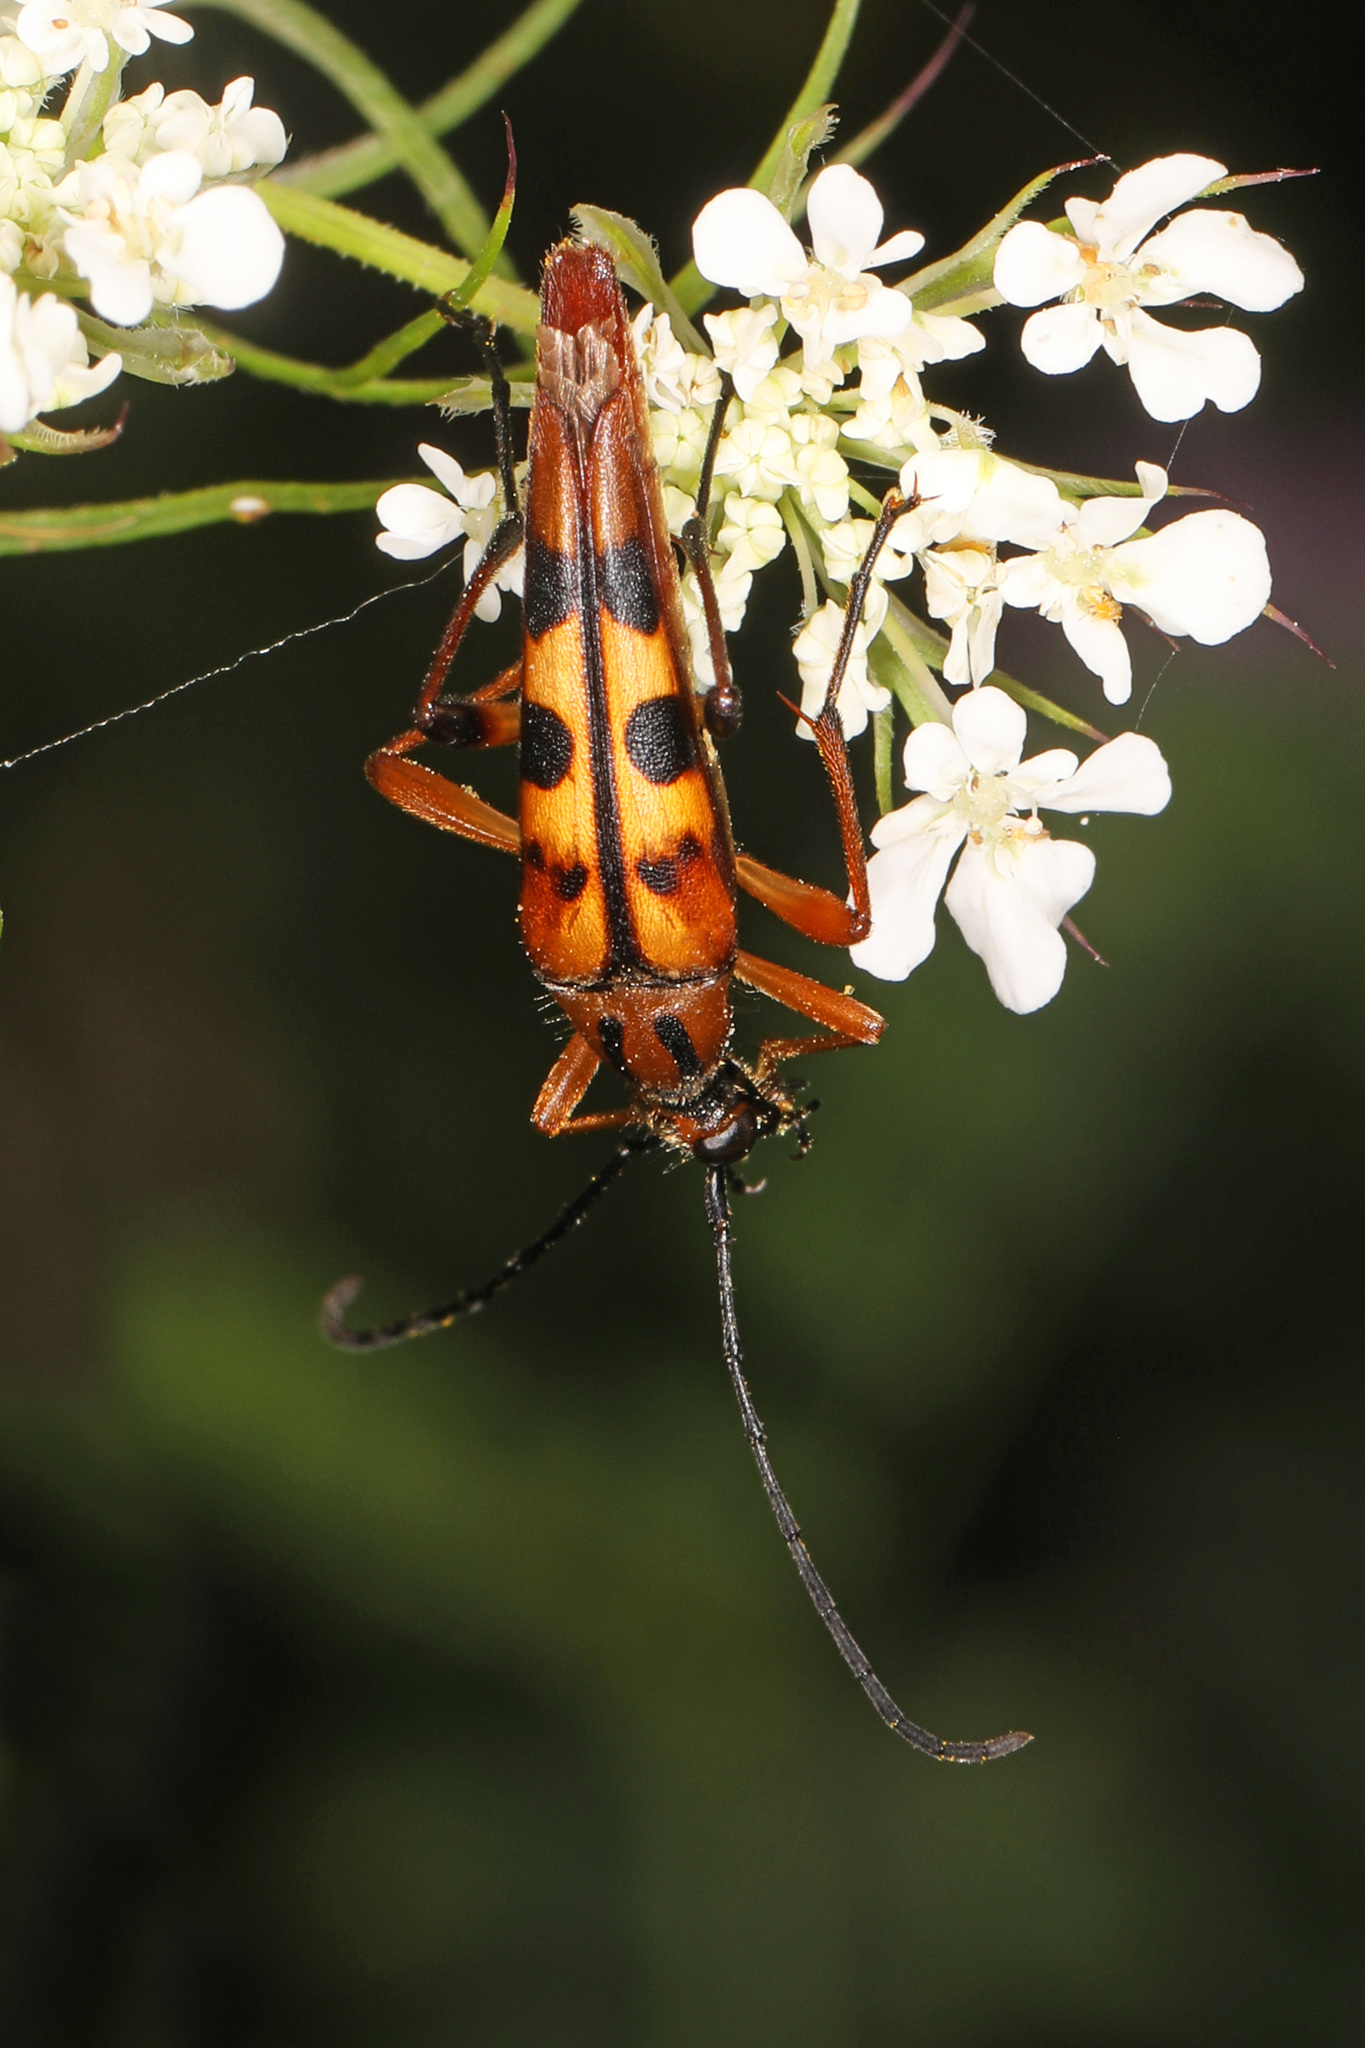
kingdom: Animalia
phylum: Arthropoda
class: Insecta
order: Coleoptera
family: Cerambycidae
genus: Strangalia
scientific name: Strangalia famelica
